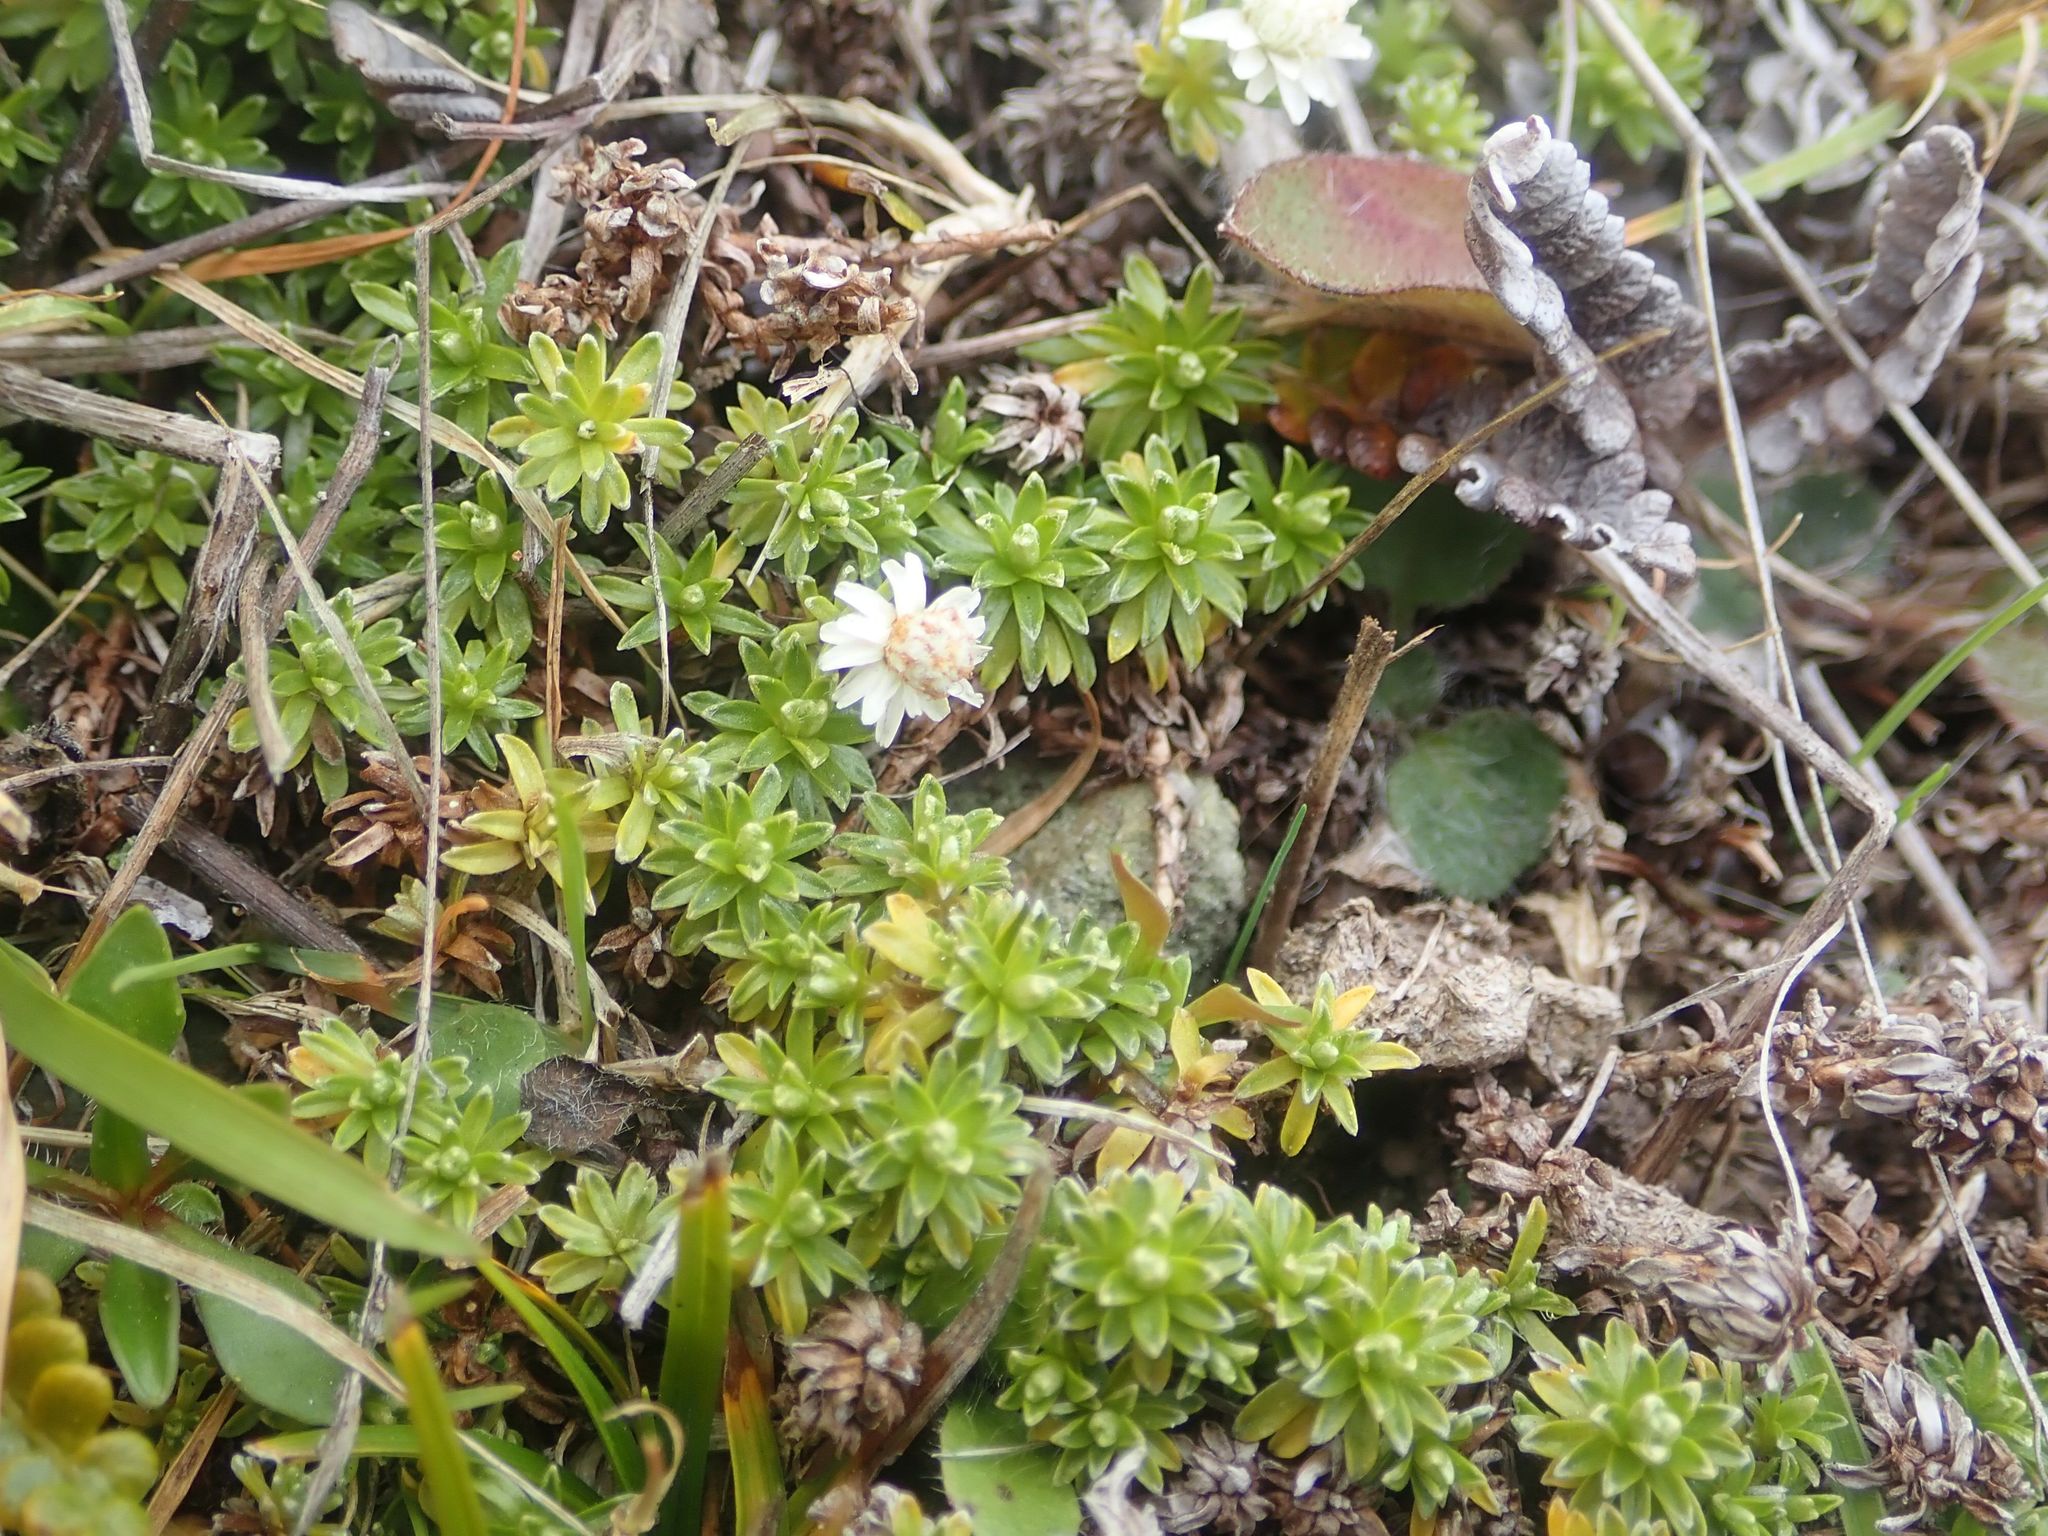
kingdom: Plantae
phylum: Tracheophyta
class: Magnoliopsida
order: Asterales
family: Asteraceae
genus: Raoulia
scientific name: Raoulia subsericea
